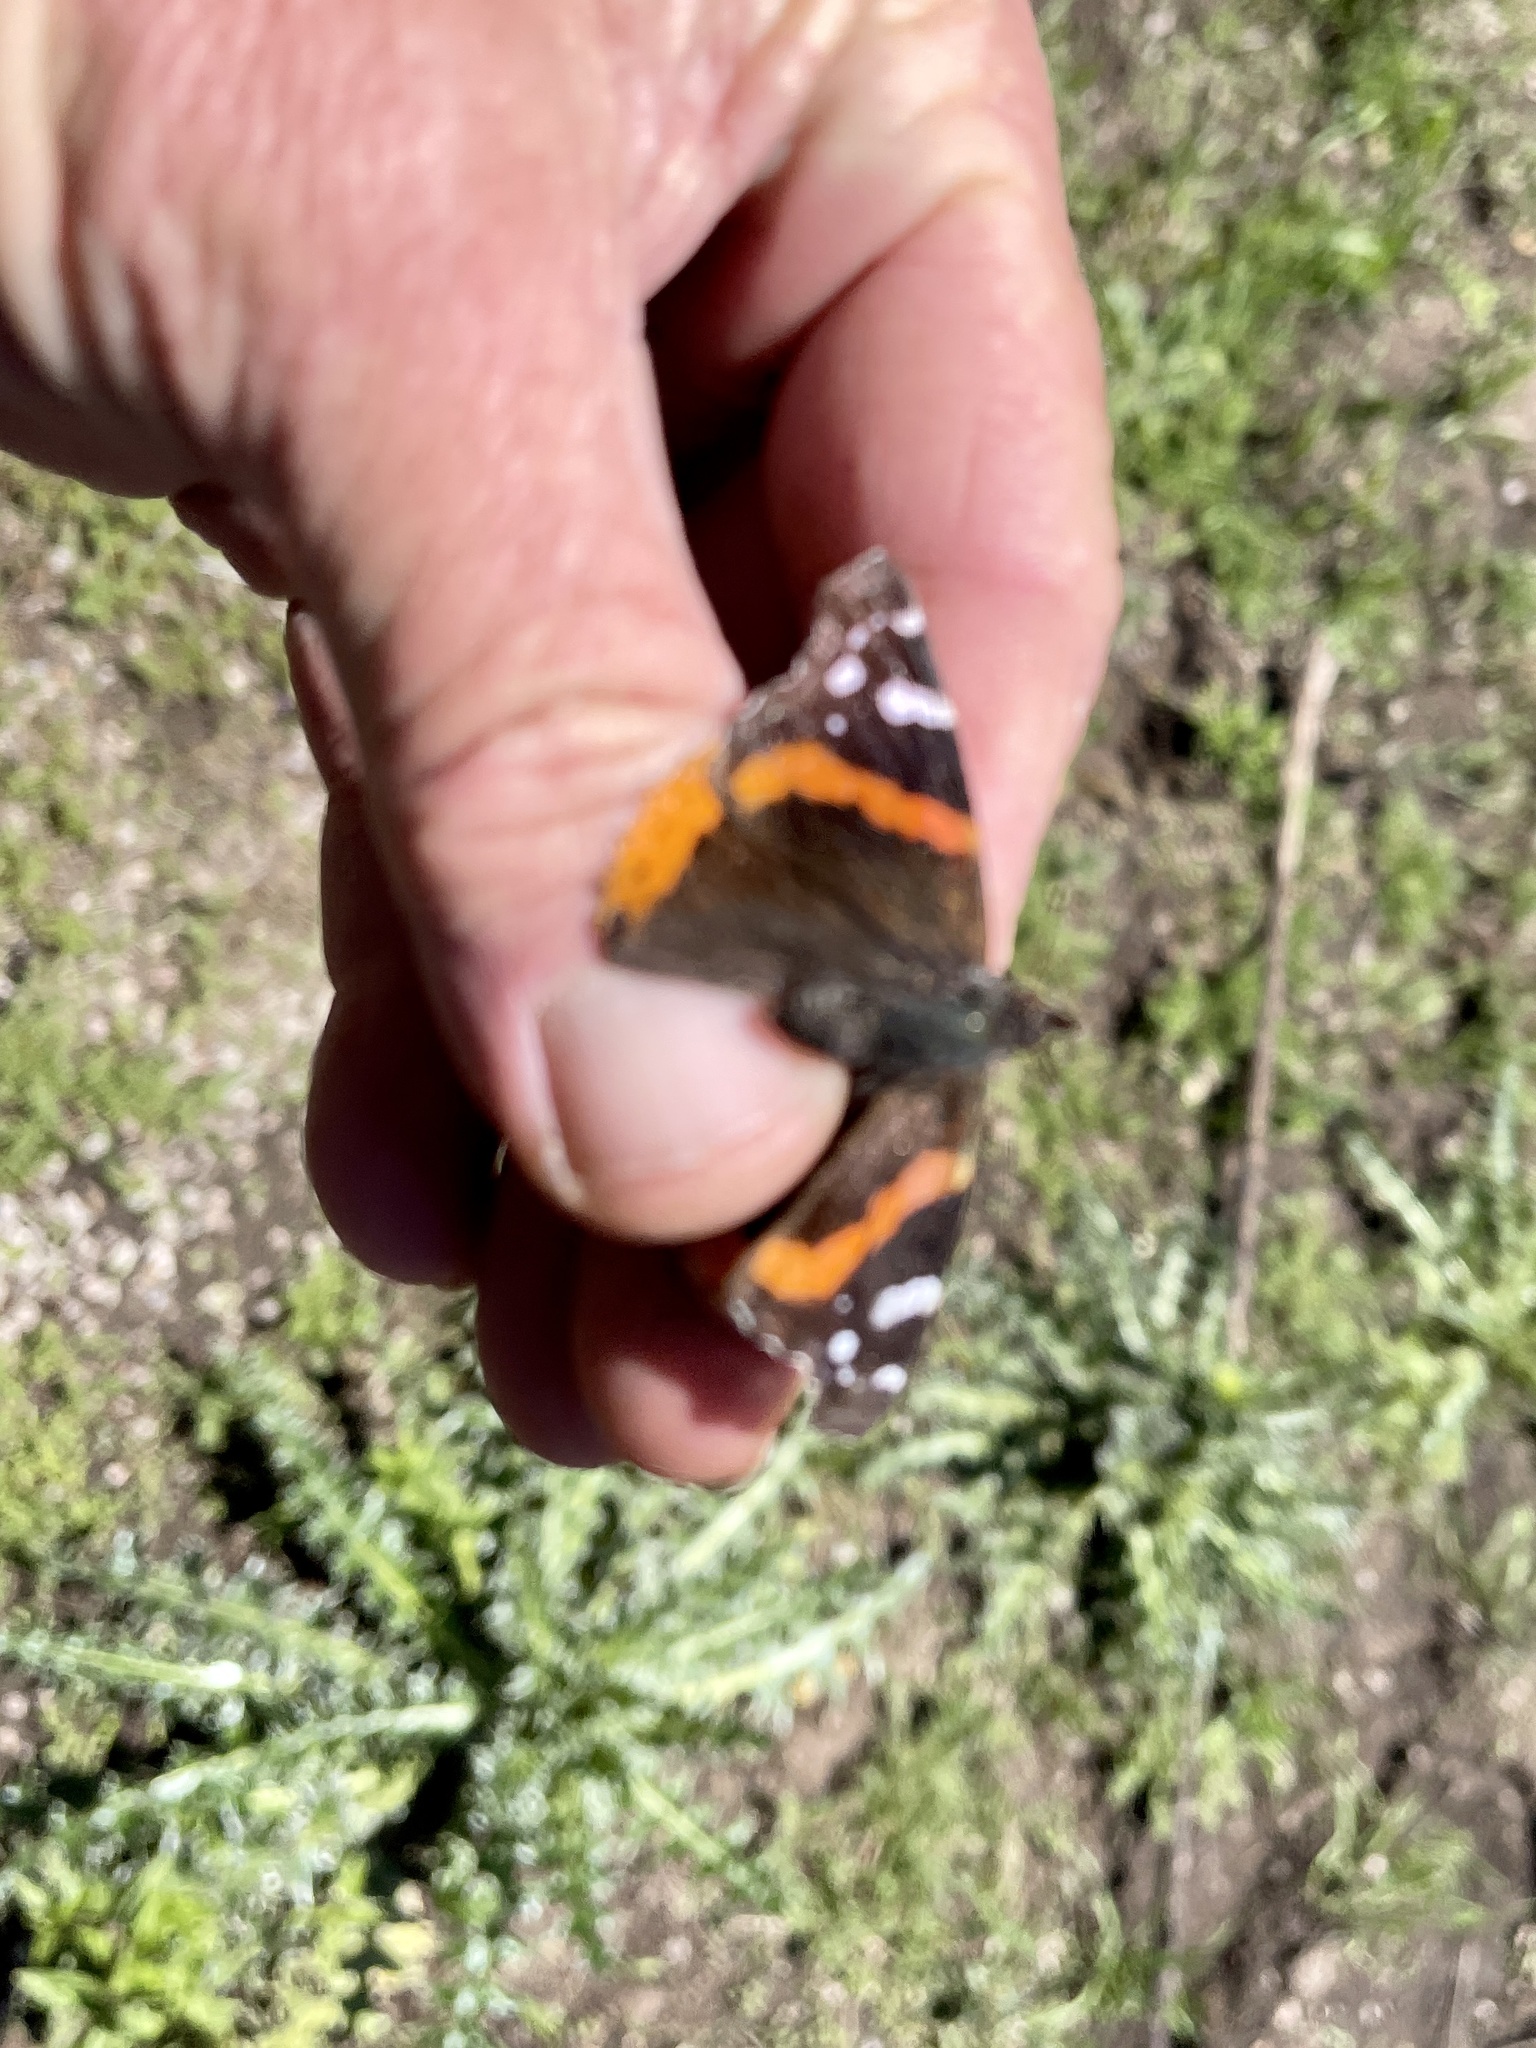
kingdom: Animalia
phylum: Arthropoda
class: Insecta
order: Lepidoptera
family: Nymphalidae
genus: Vanessa
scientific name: Vanessa atalanta
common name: Red admiral
